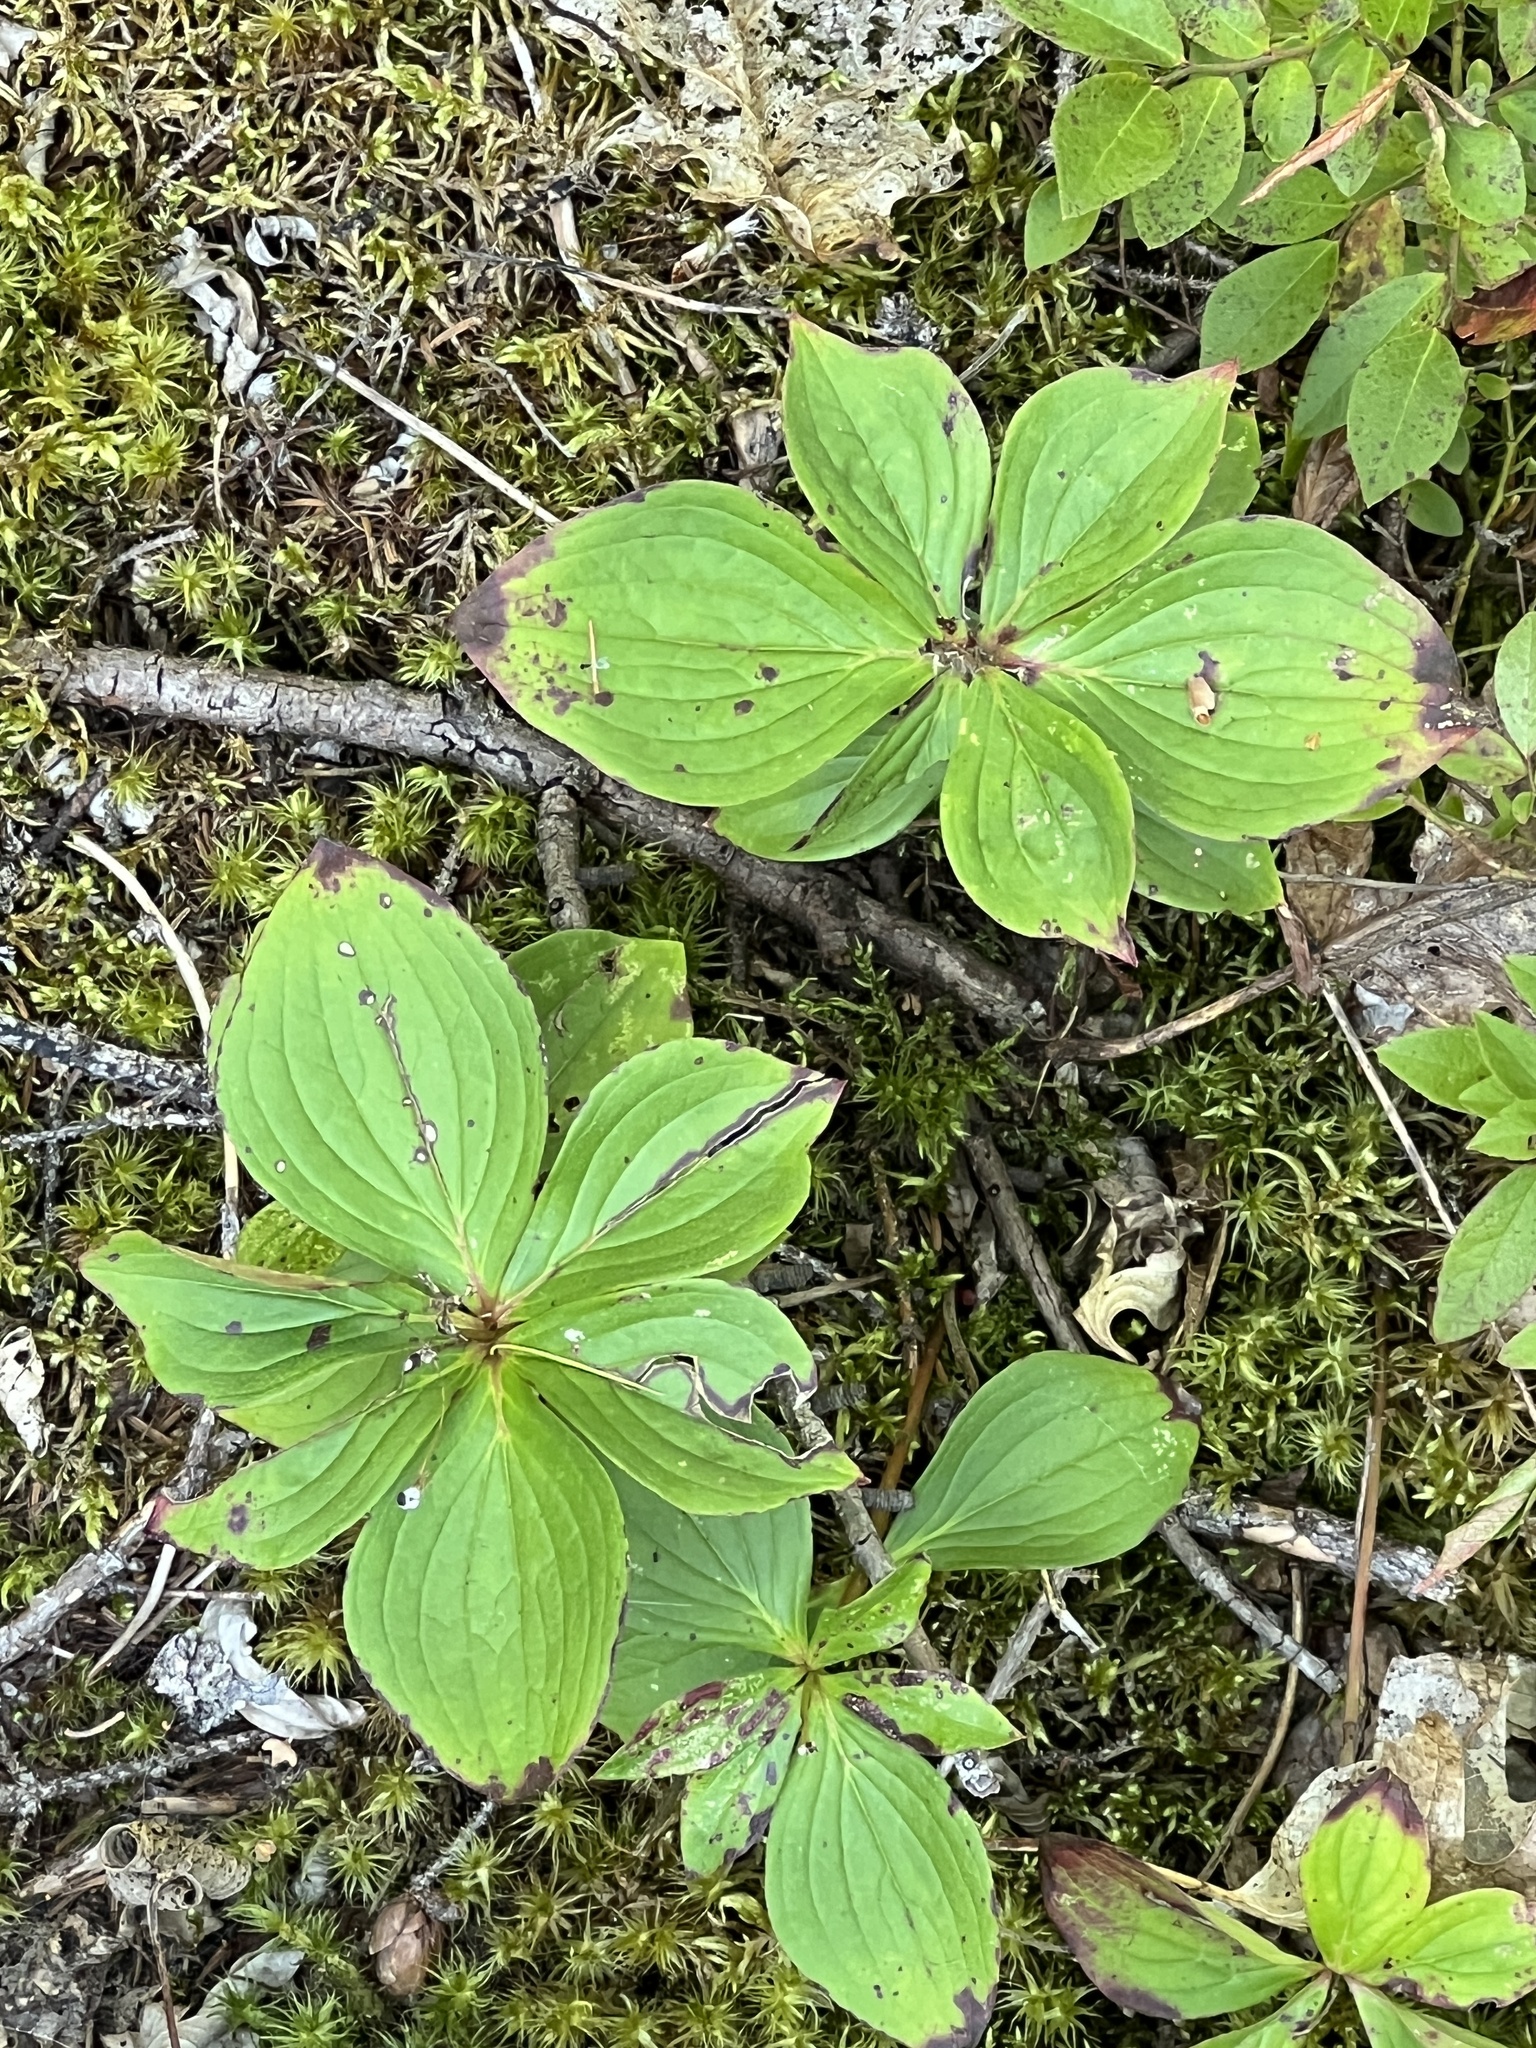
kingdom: Plantae
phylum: Tracheophyta
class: Magnoliopsida
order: Cornales
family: Cornaceae
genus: Cornus
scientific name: Cornus canadensis
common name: Creeping dogwood
